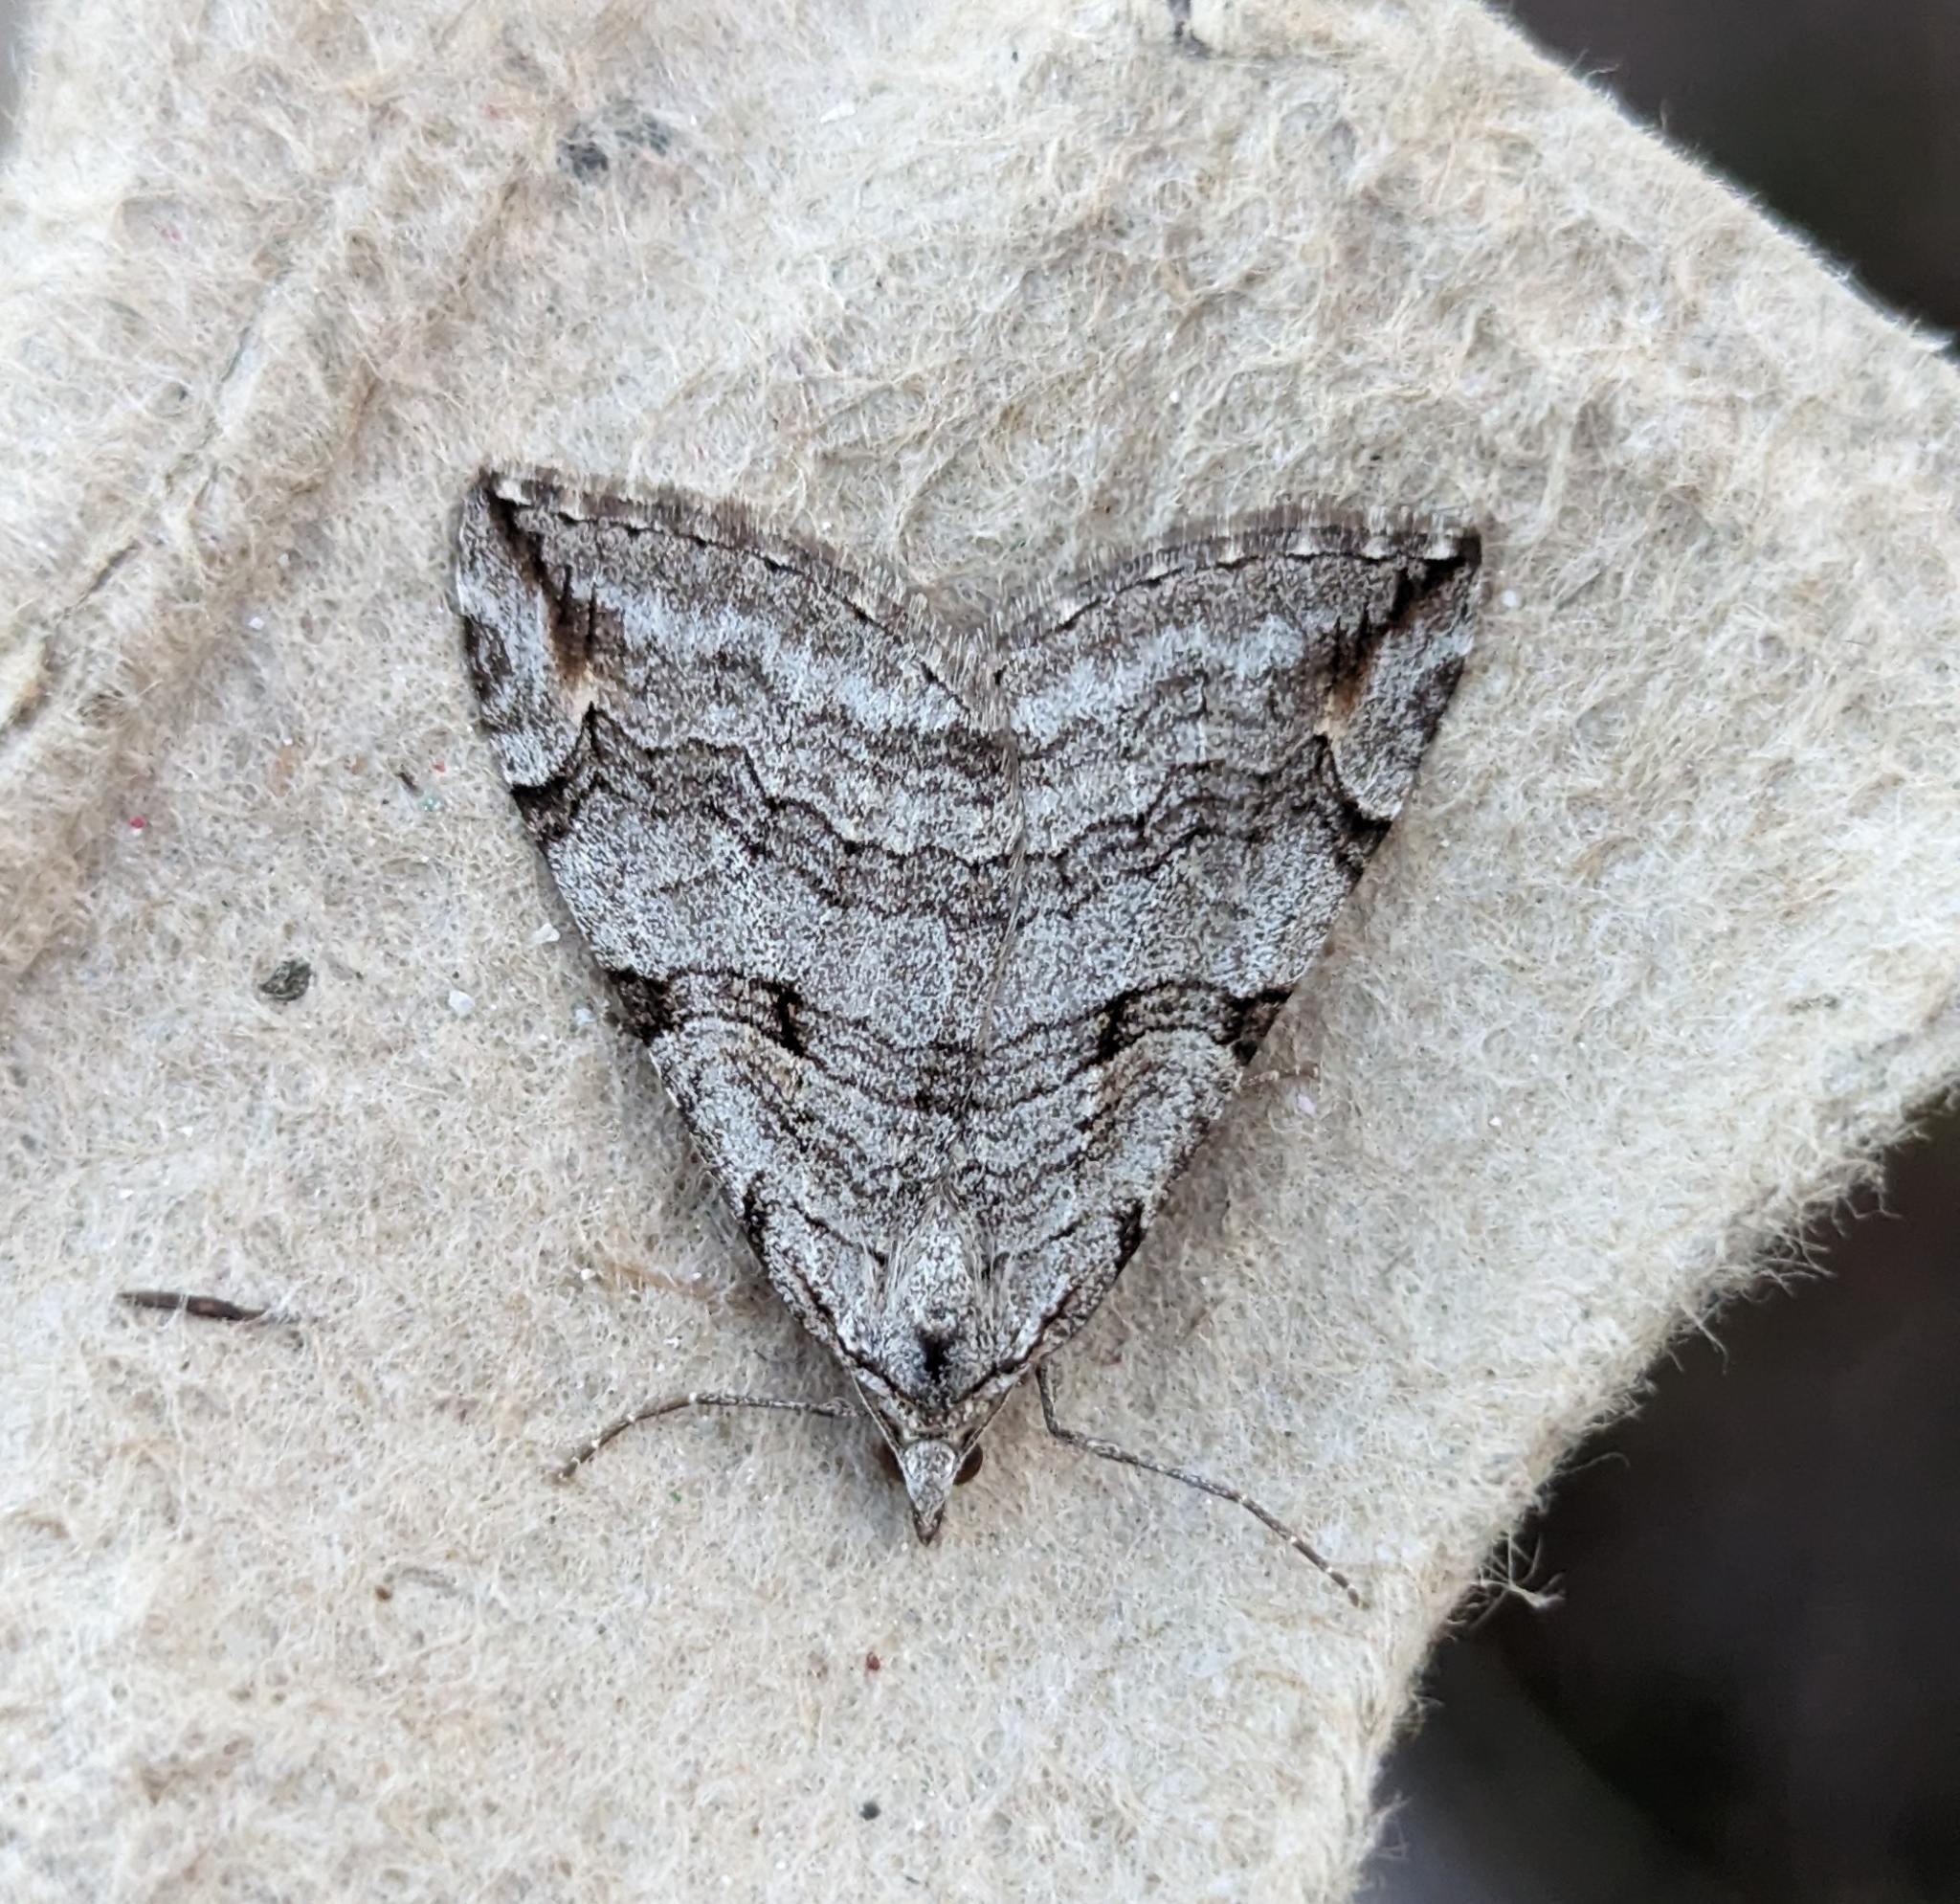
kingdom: Animalia
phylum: Arthropoda
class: Insecta
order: Lepidoptera
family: Geometridae
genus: Aplocera
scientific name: Aplocera plagiata
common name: Treble-bar
